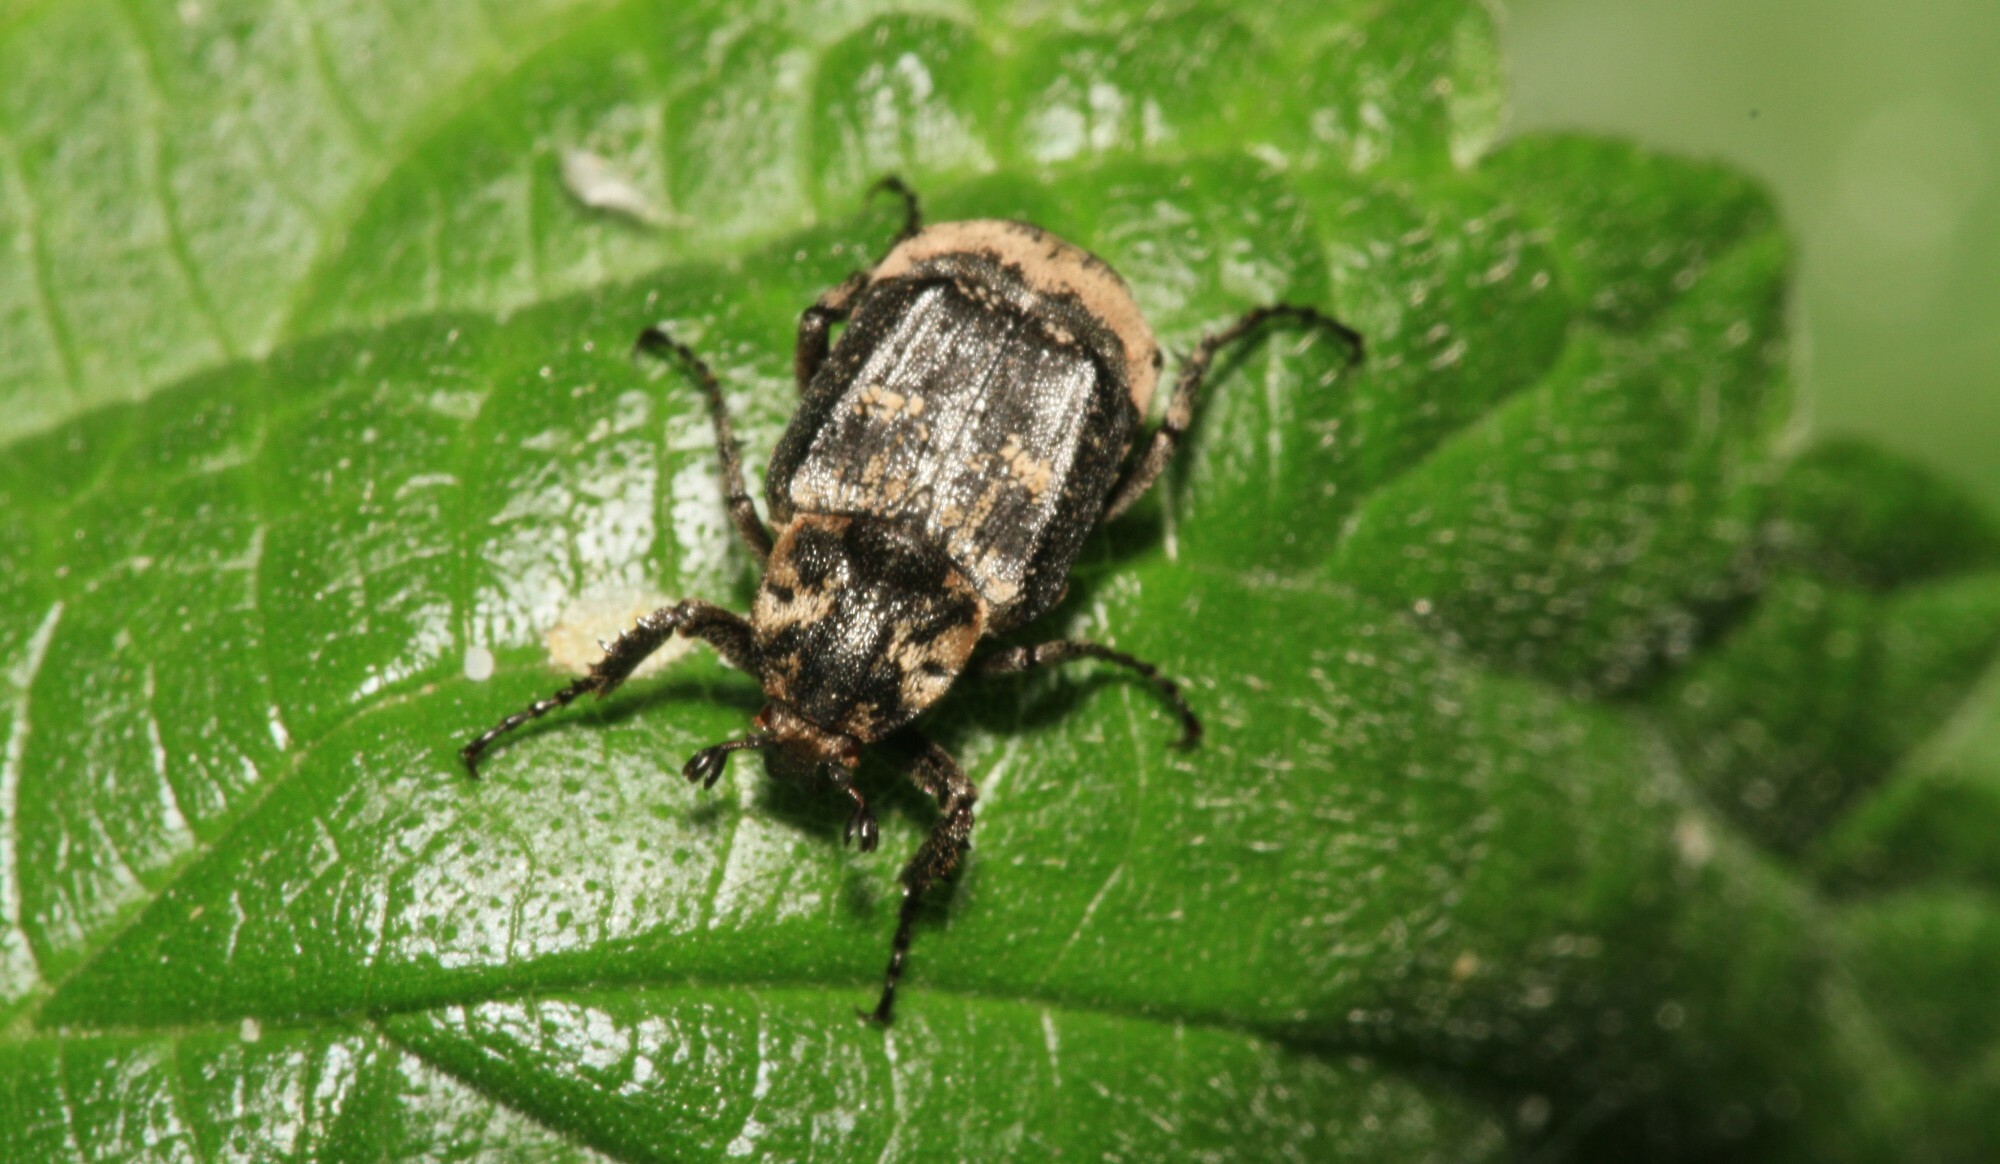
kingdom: Animalia
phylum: Arthropoda
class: Insecta
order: Coleoptera
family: Scarabaeidae
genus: Valgus
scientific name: Valgus hemipterus
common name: Bug flower chafer
